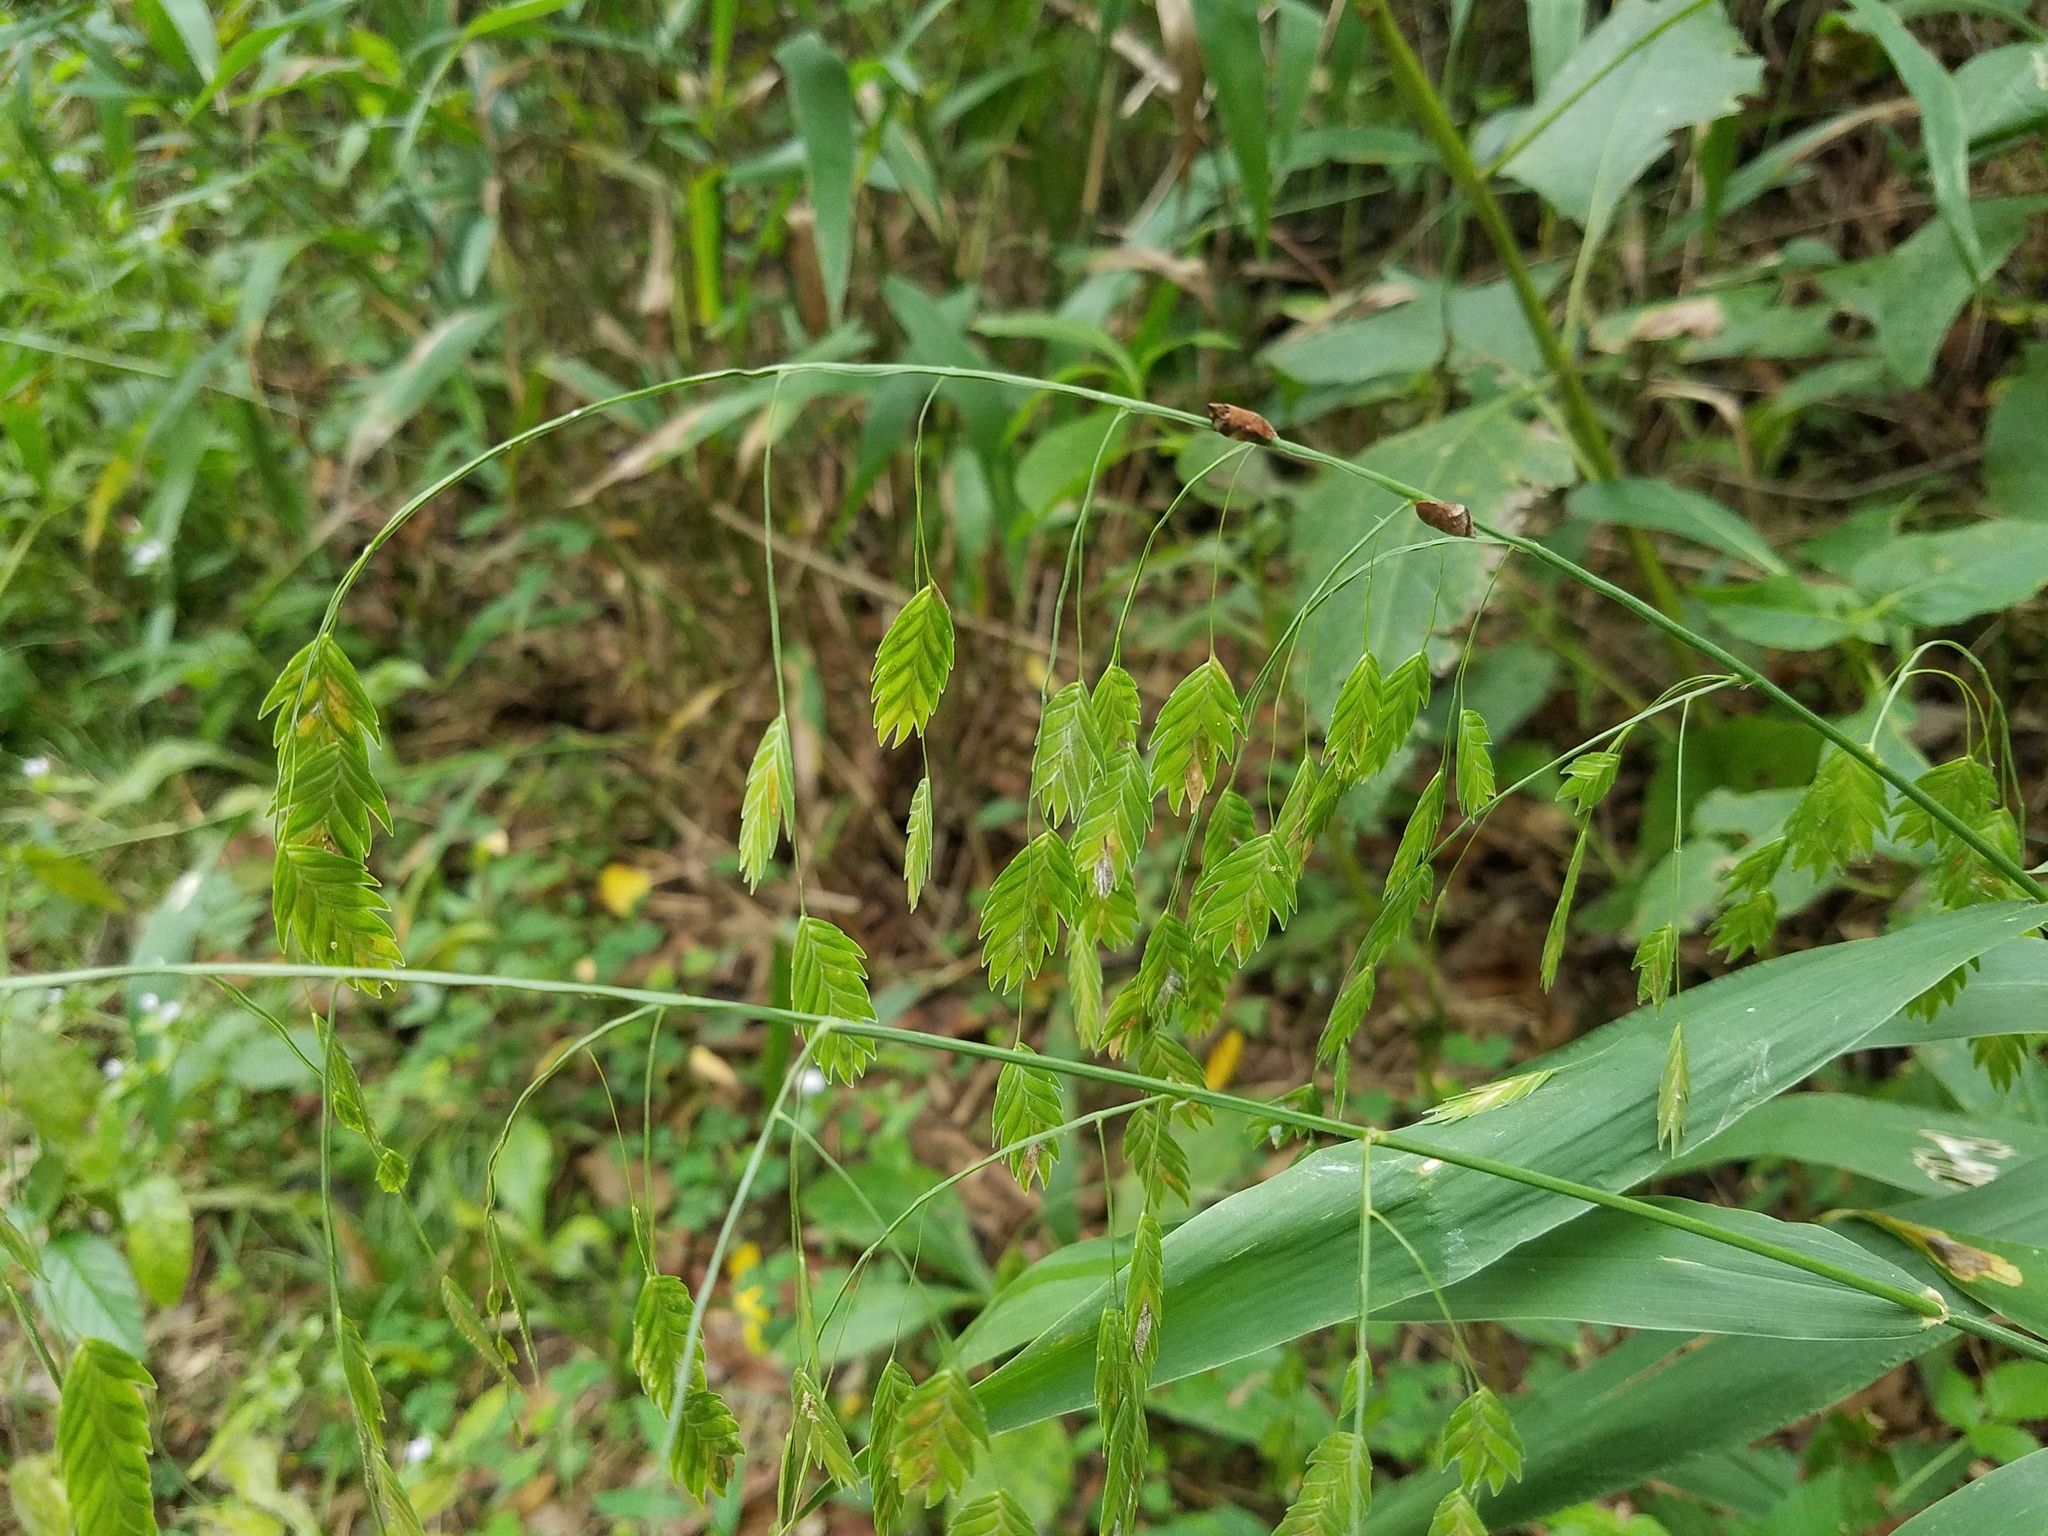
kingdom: Plantae
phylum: Tracheophyta
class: Liliopsida
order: Poales
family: Poaceae
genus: Chasmanthium
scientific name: Chasmanthium latifolium
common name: Broad-leaved chasmanthium
